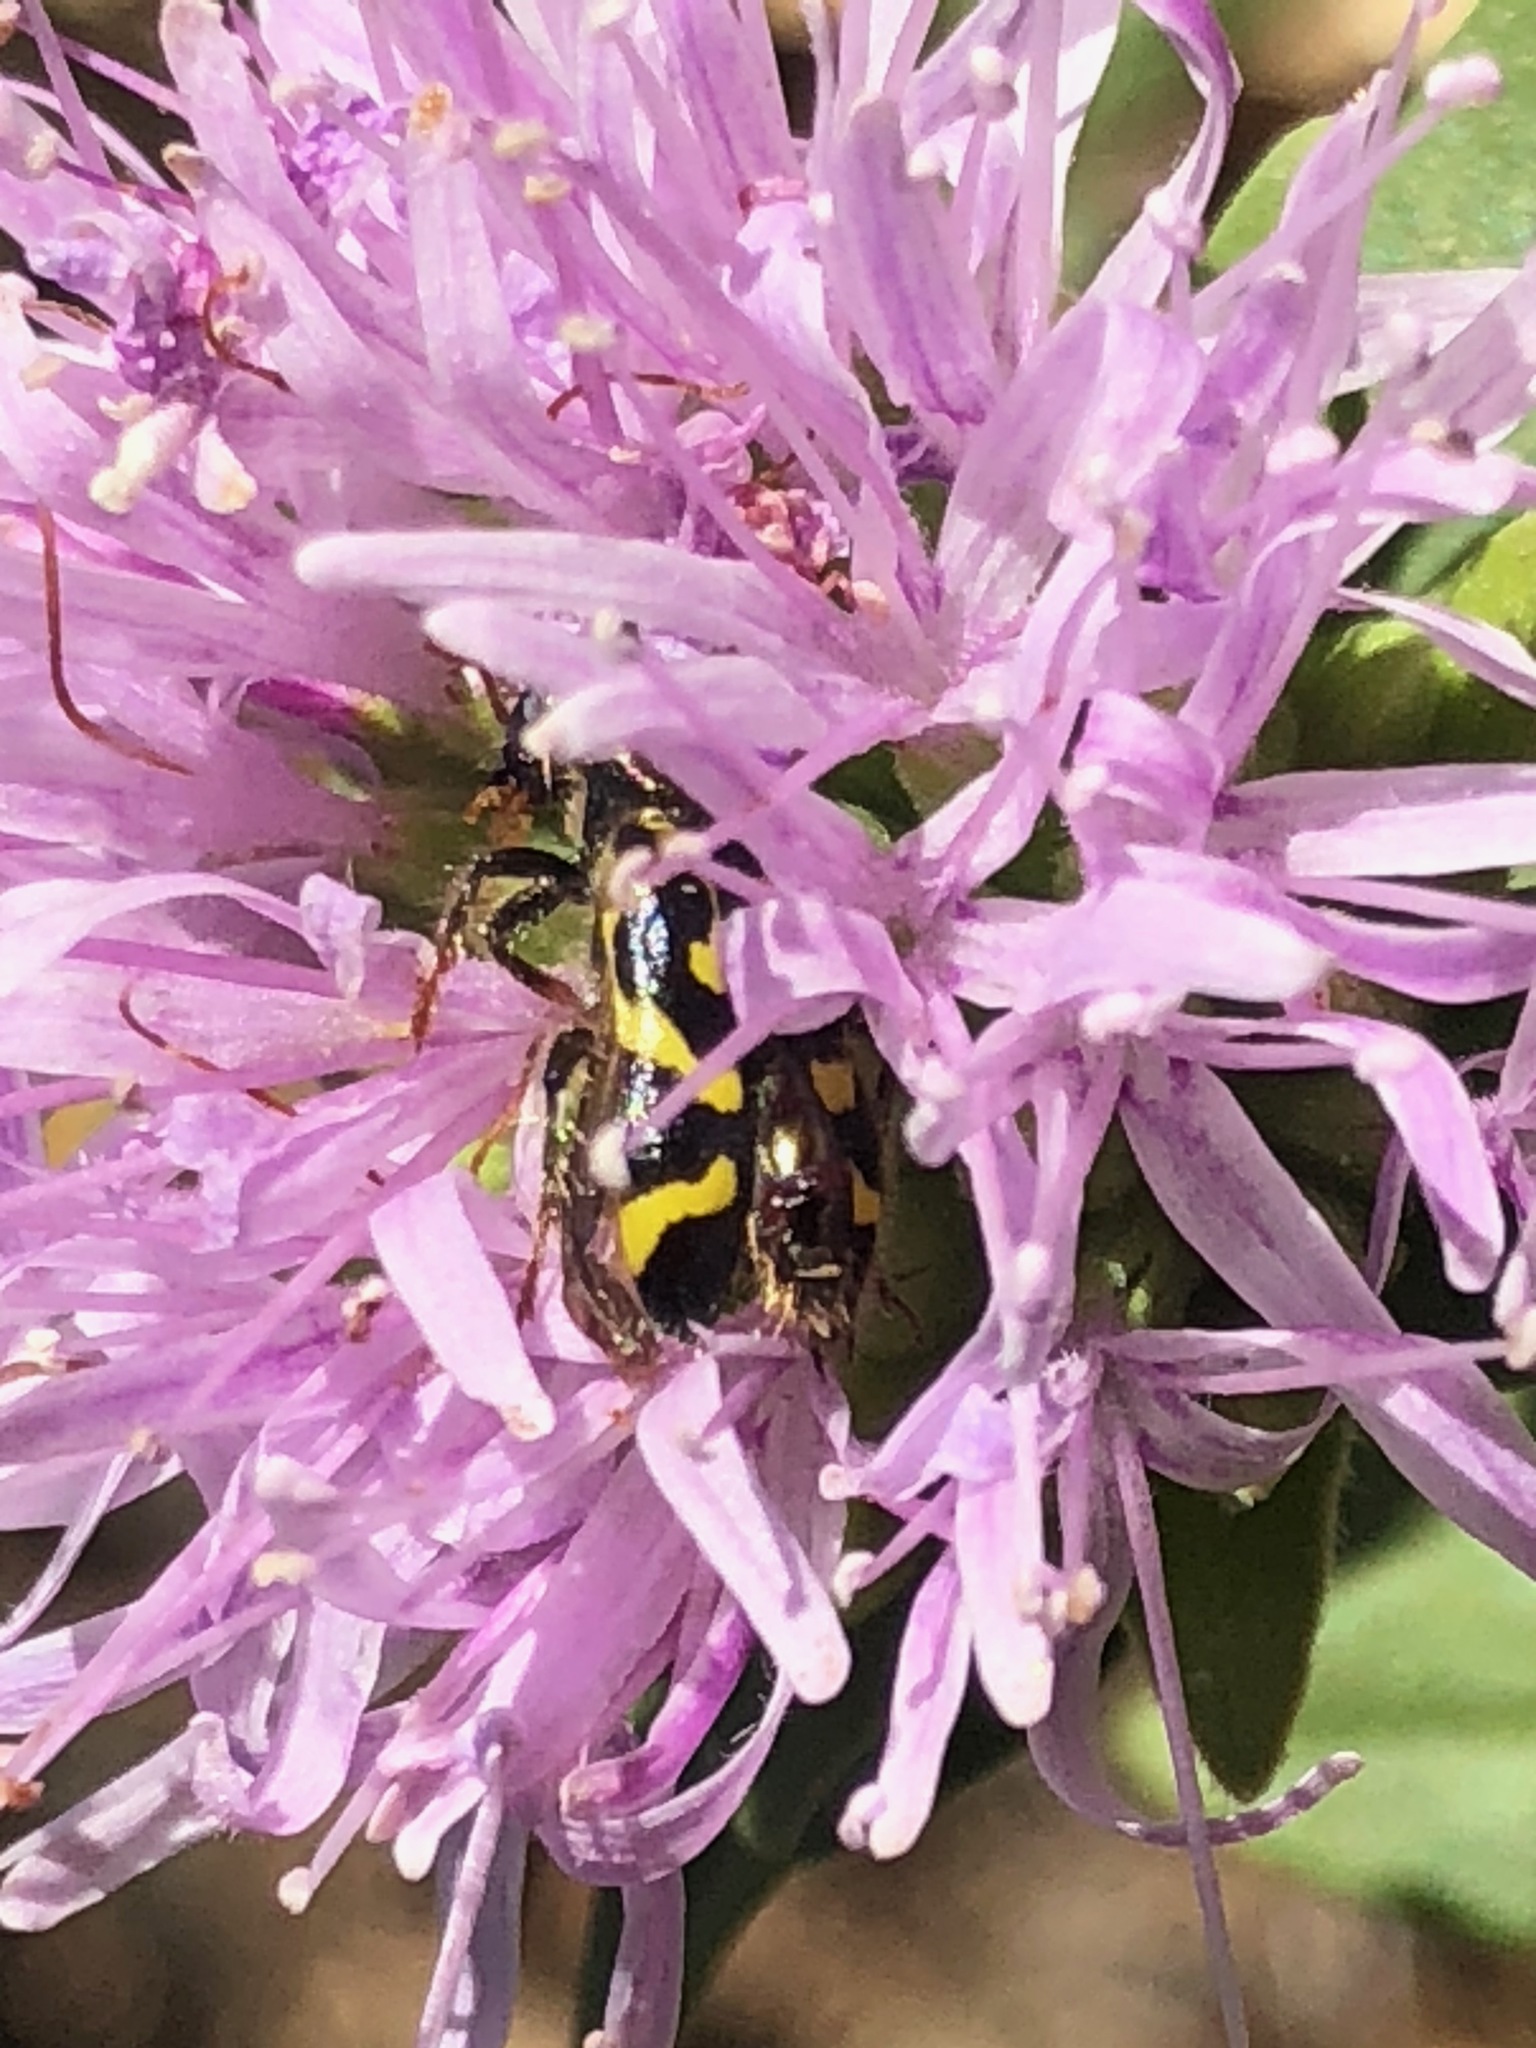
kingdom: Animalia
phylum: Arthropoda
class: Insecta
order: Coleoptera
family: Cleridae
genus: Trichodes
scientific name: Trichodes ornatus
